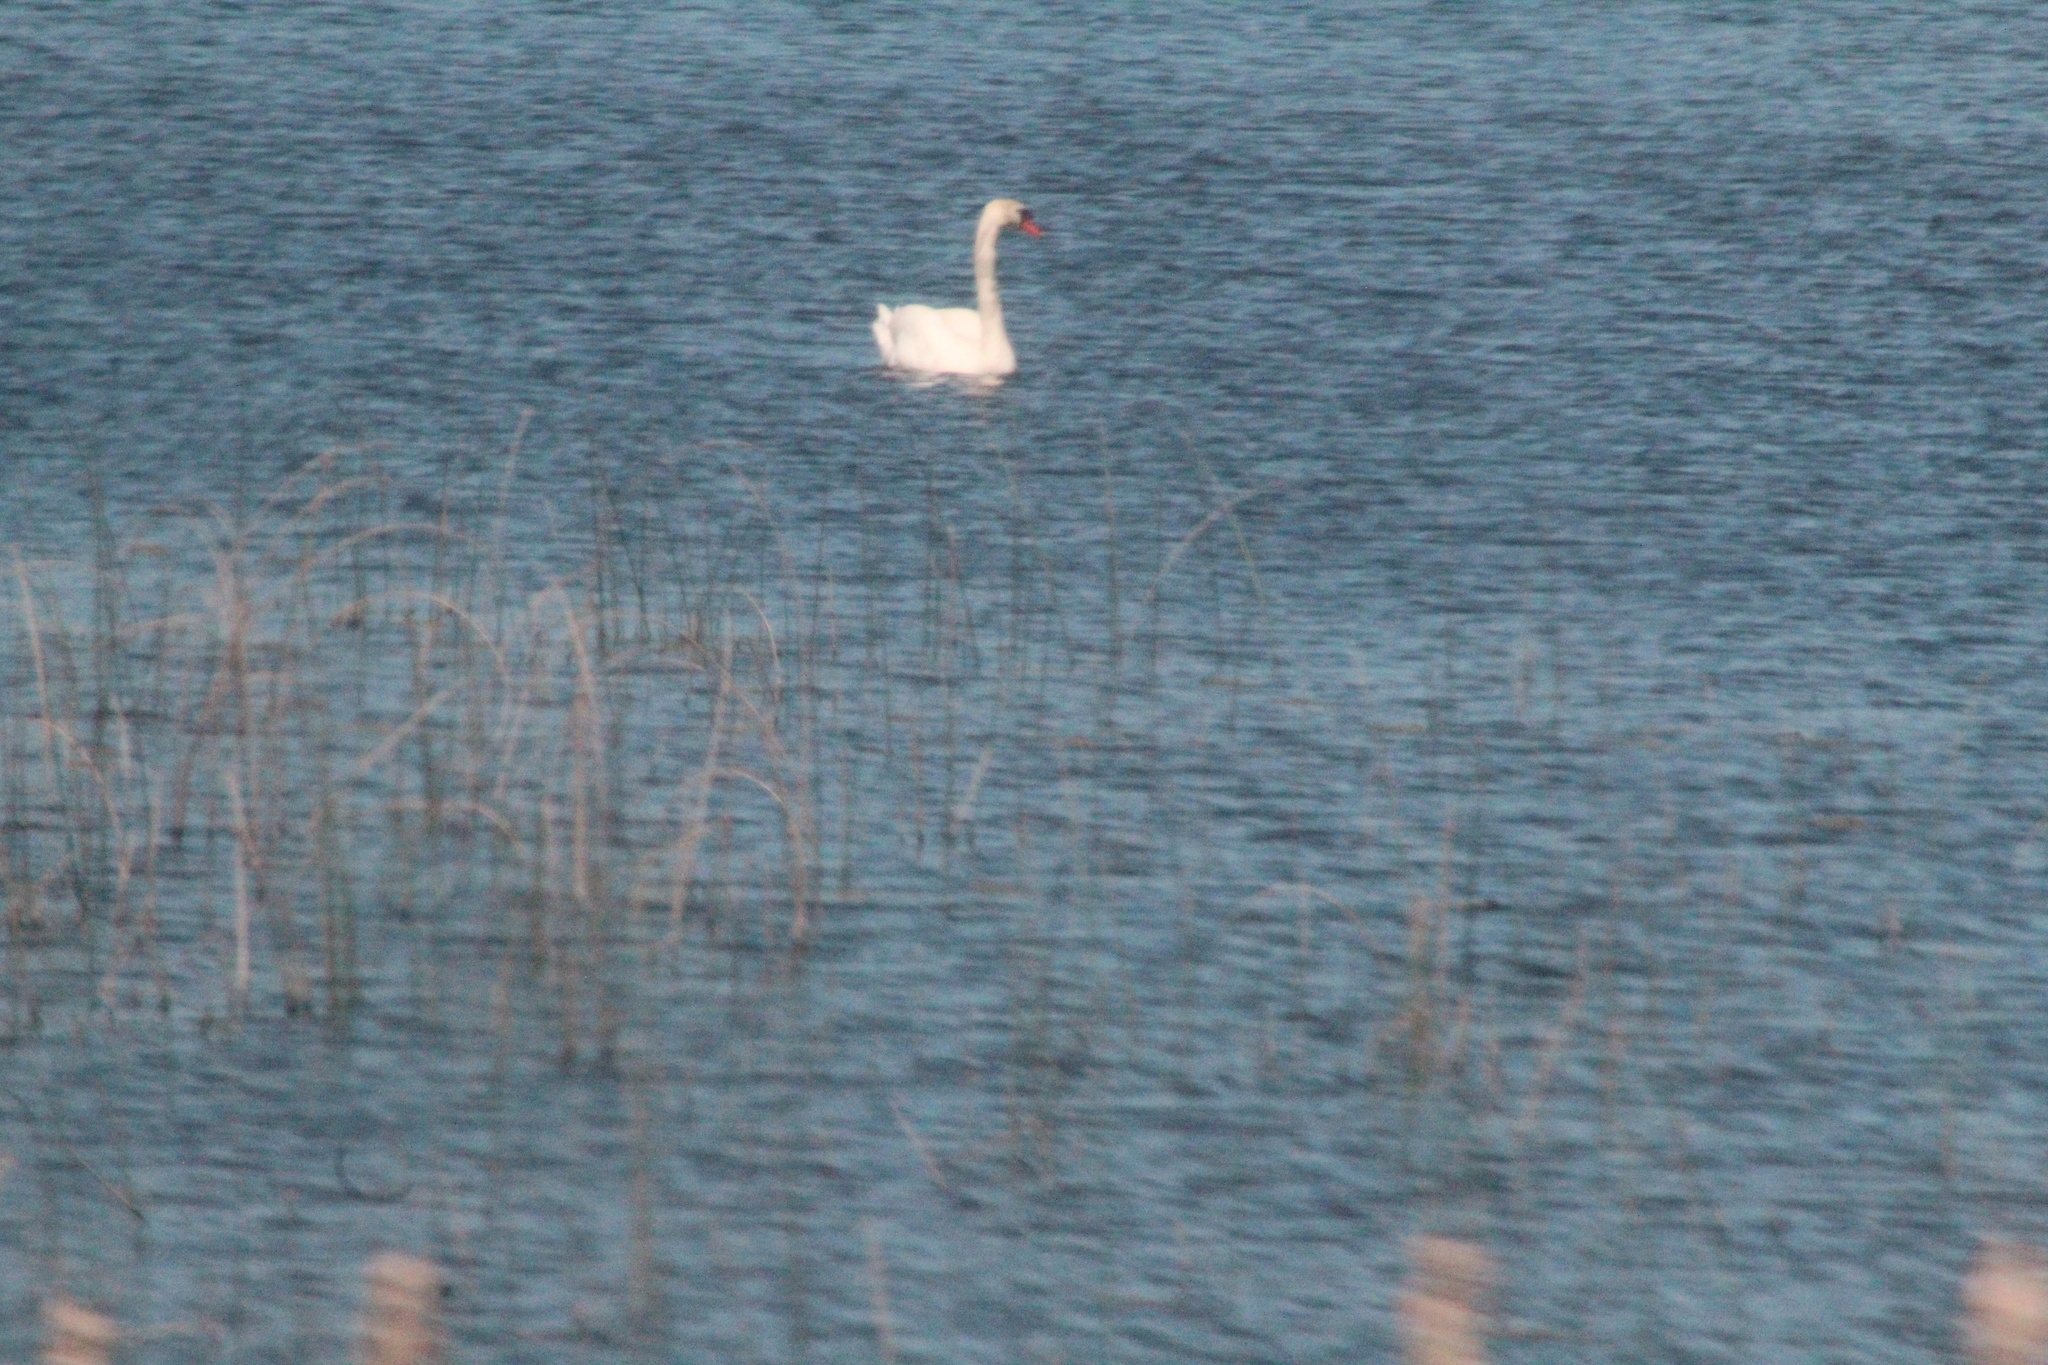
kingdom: Animalia
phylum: Chordata
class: Aves
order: Anseriformes
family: Anatidae
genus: Cygnus
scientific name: Cygnus olor
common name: Mute swan
